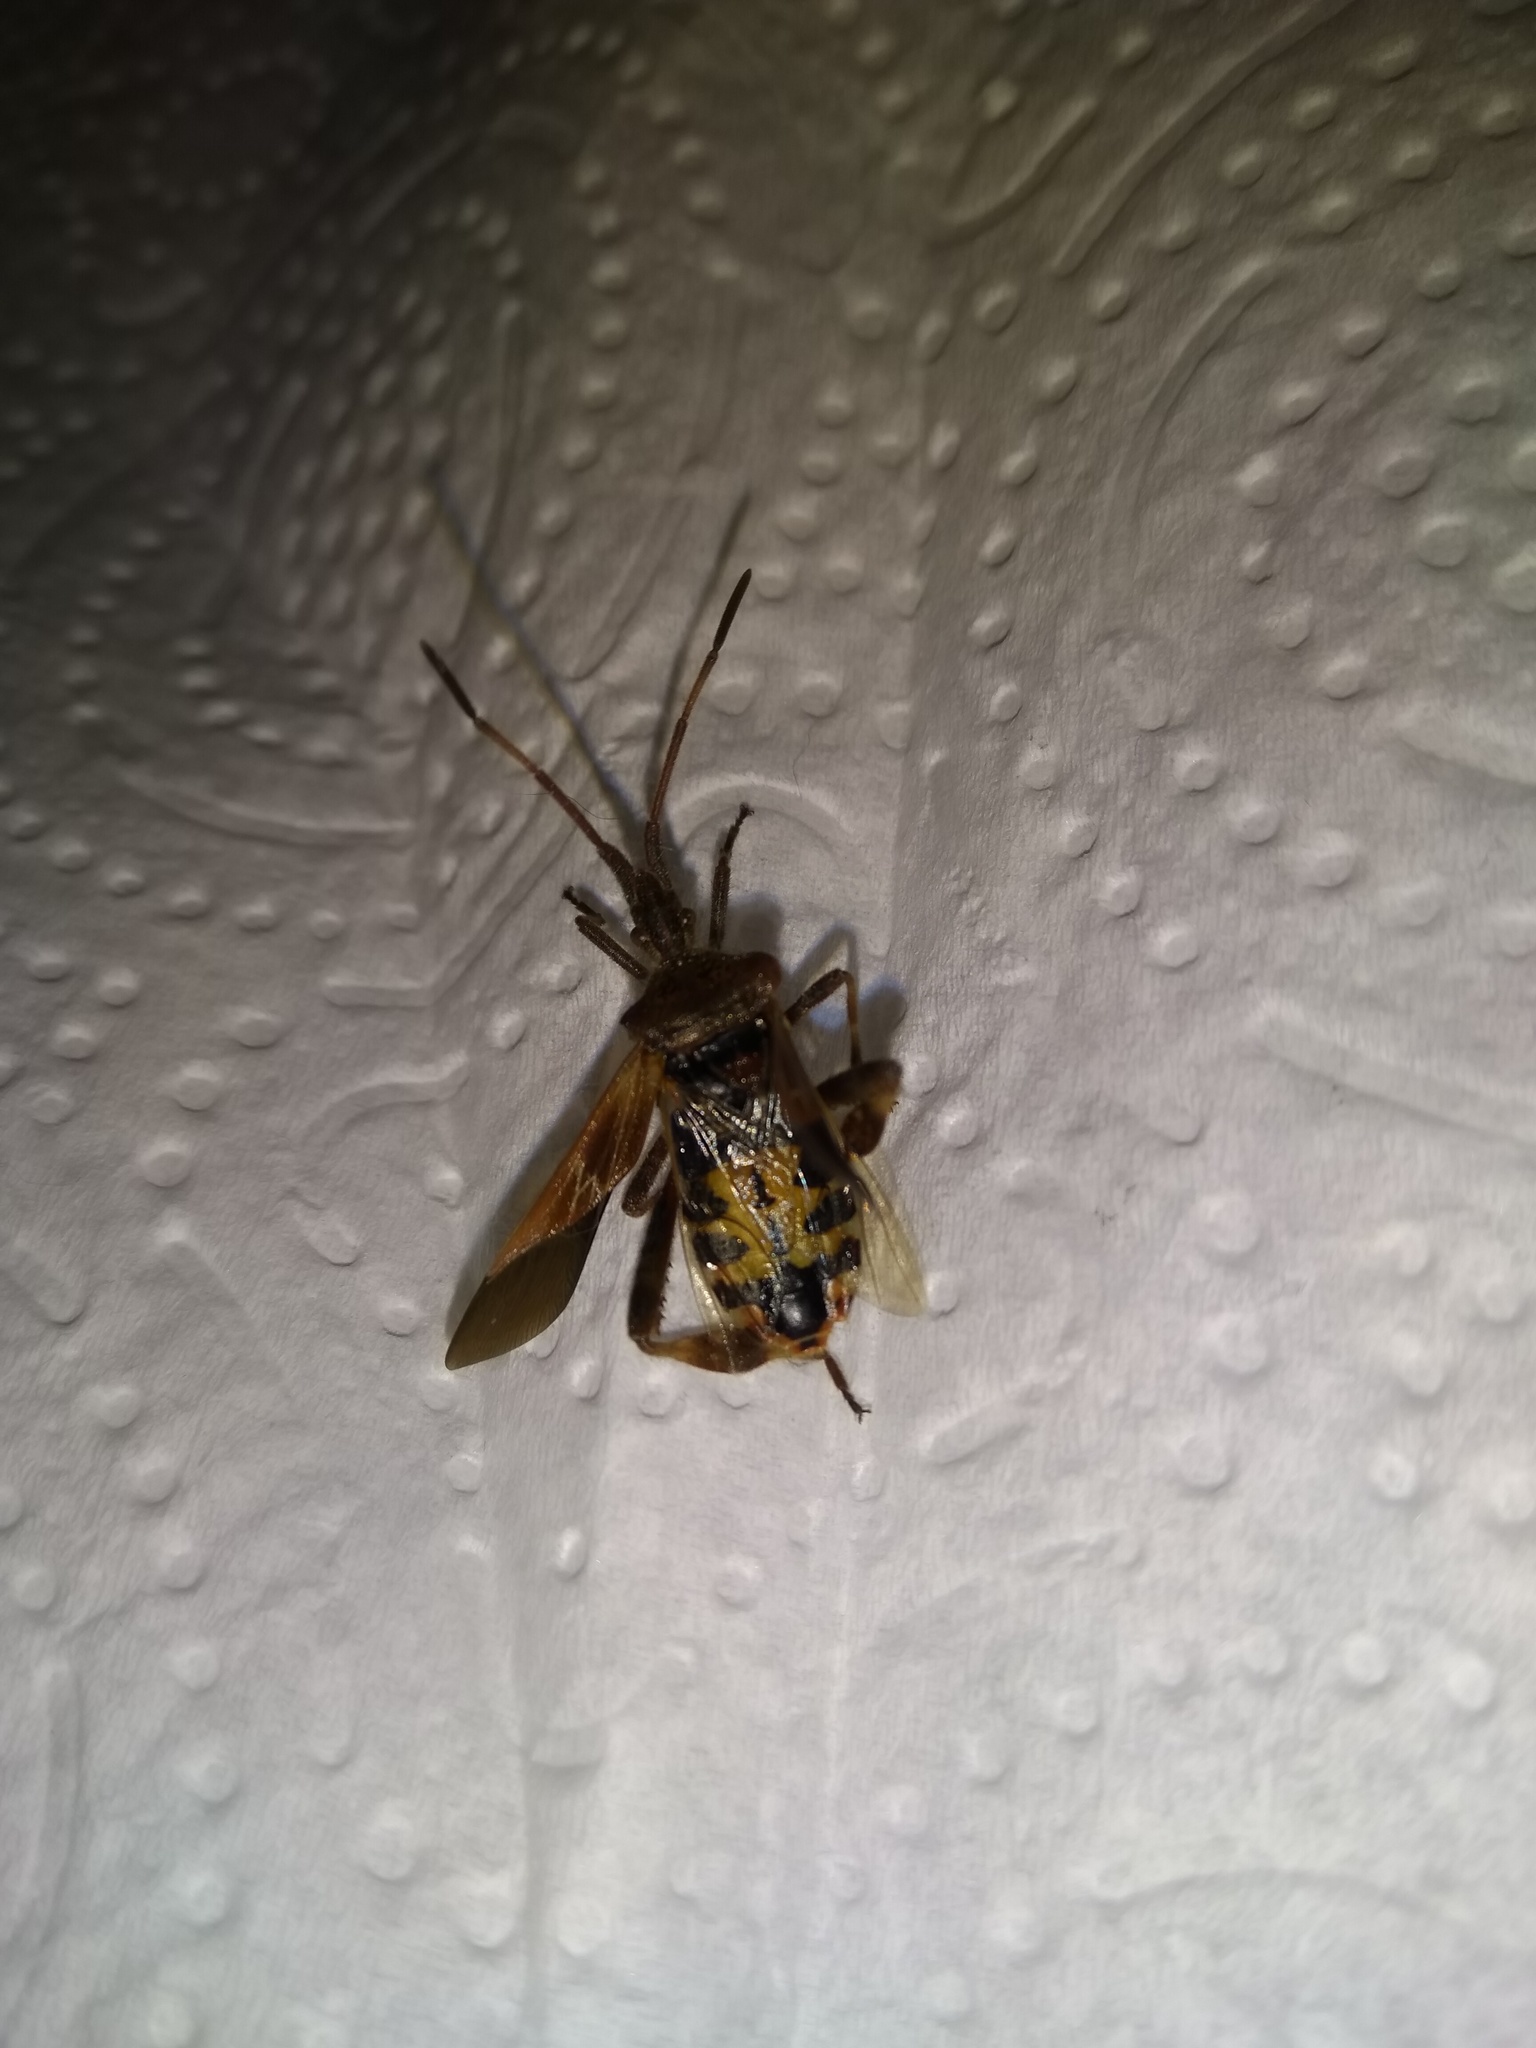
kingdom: Animalia
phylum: Arthropoda
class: Insecta
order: Hemiptera
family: Coreidae
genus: Leptoglossus
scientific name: Leptoglossus occidentalis
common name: Western conifer-seed bug
